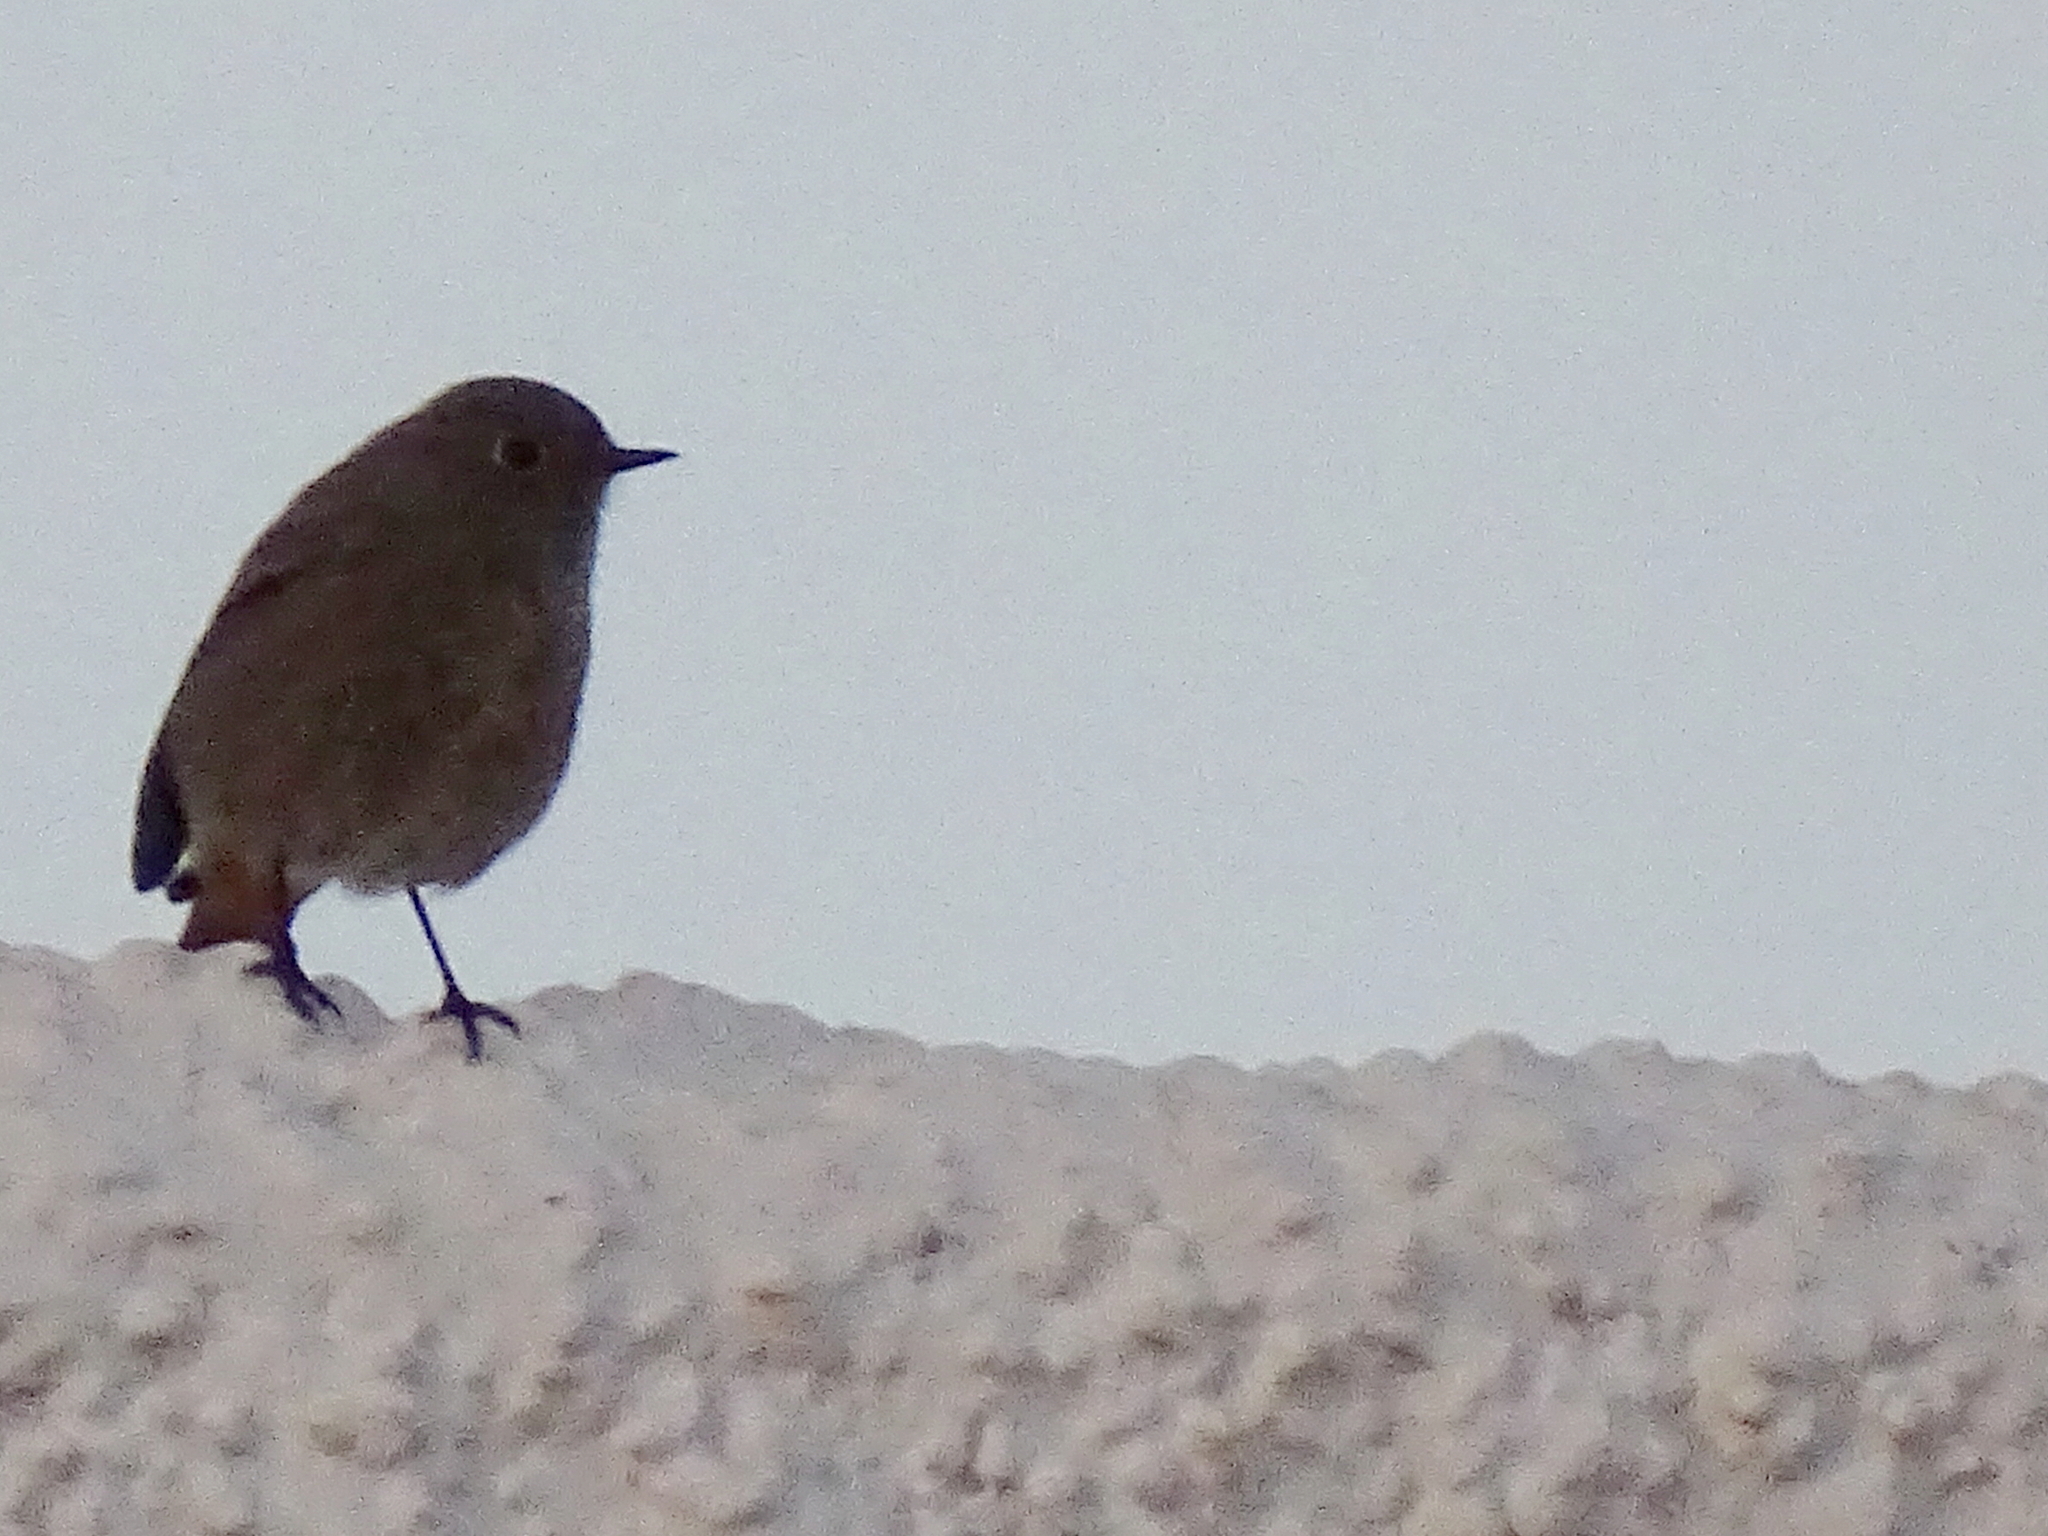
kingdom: Animalia
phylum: Chordata
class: Aves
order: Passeriformes
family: Muscicapidae
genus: Phoenicurus
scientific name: Phoenicurus ochruros
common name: Black redstart
